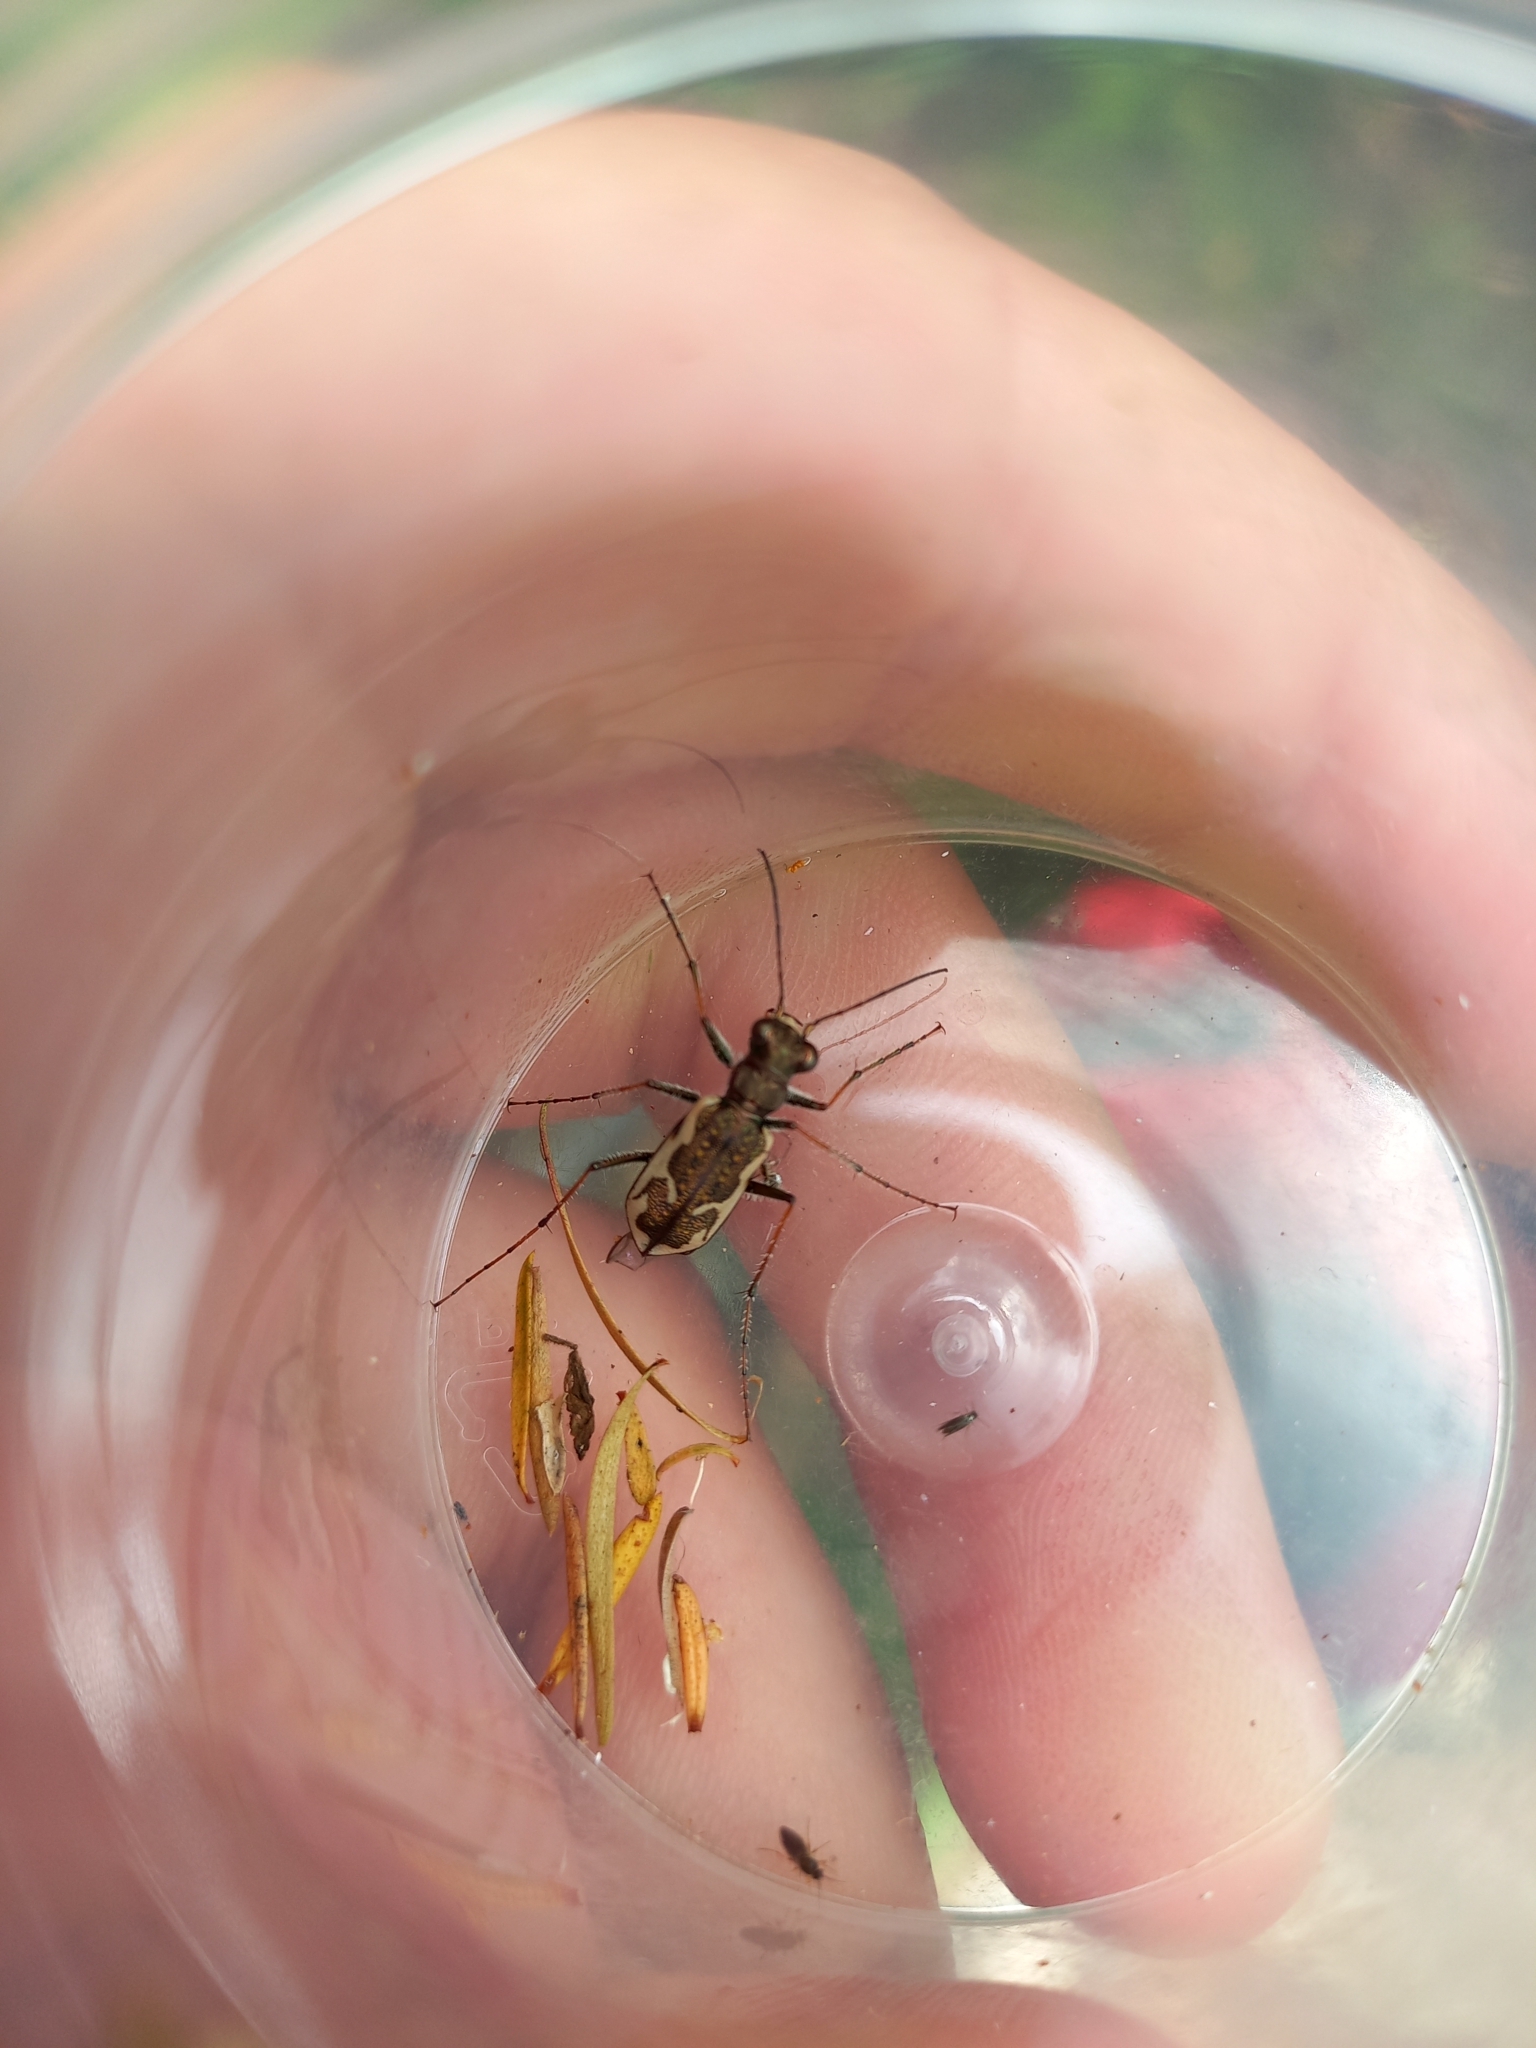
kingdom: Animalia
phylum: Arthropoda
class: Insecta
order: Coleoptera
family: Carabidae
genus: Neocicindela
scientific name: Neocicindela tuberculata
